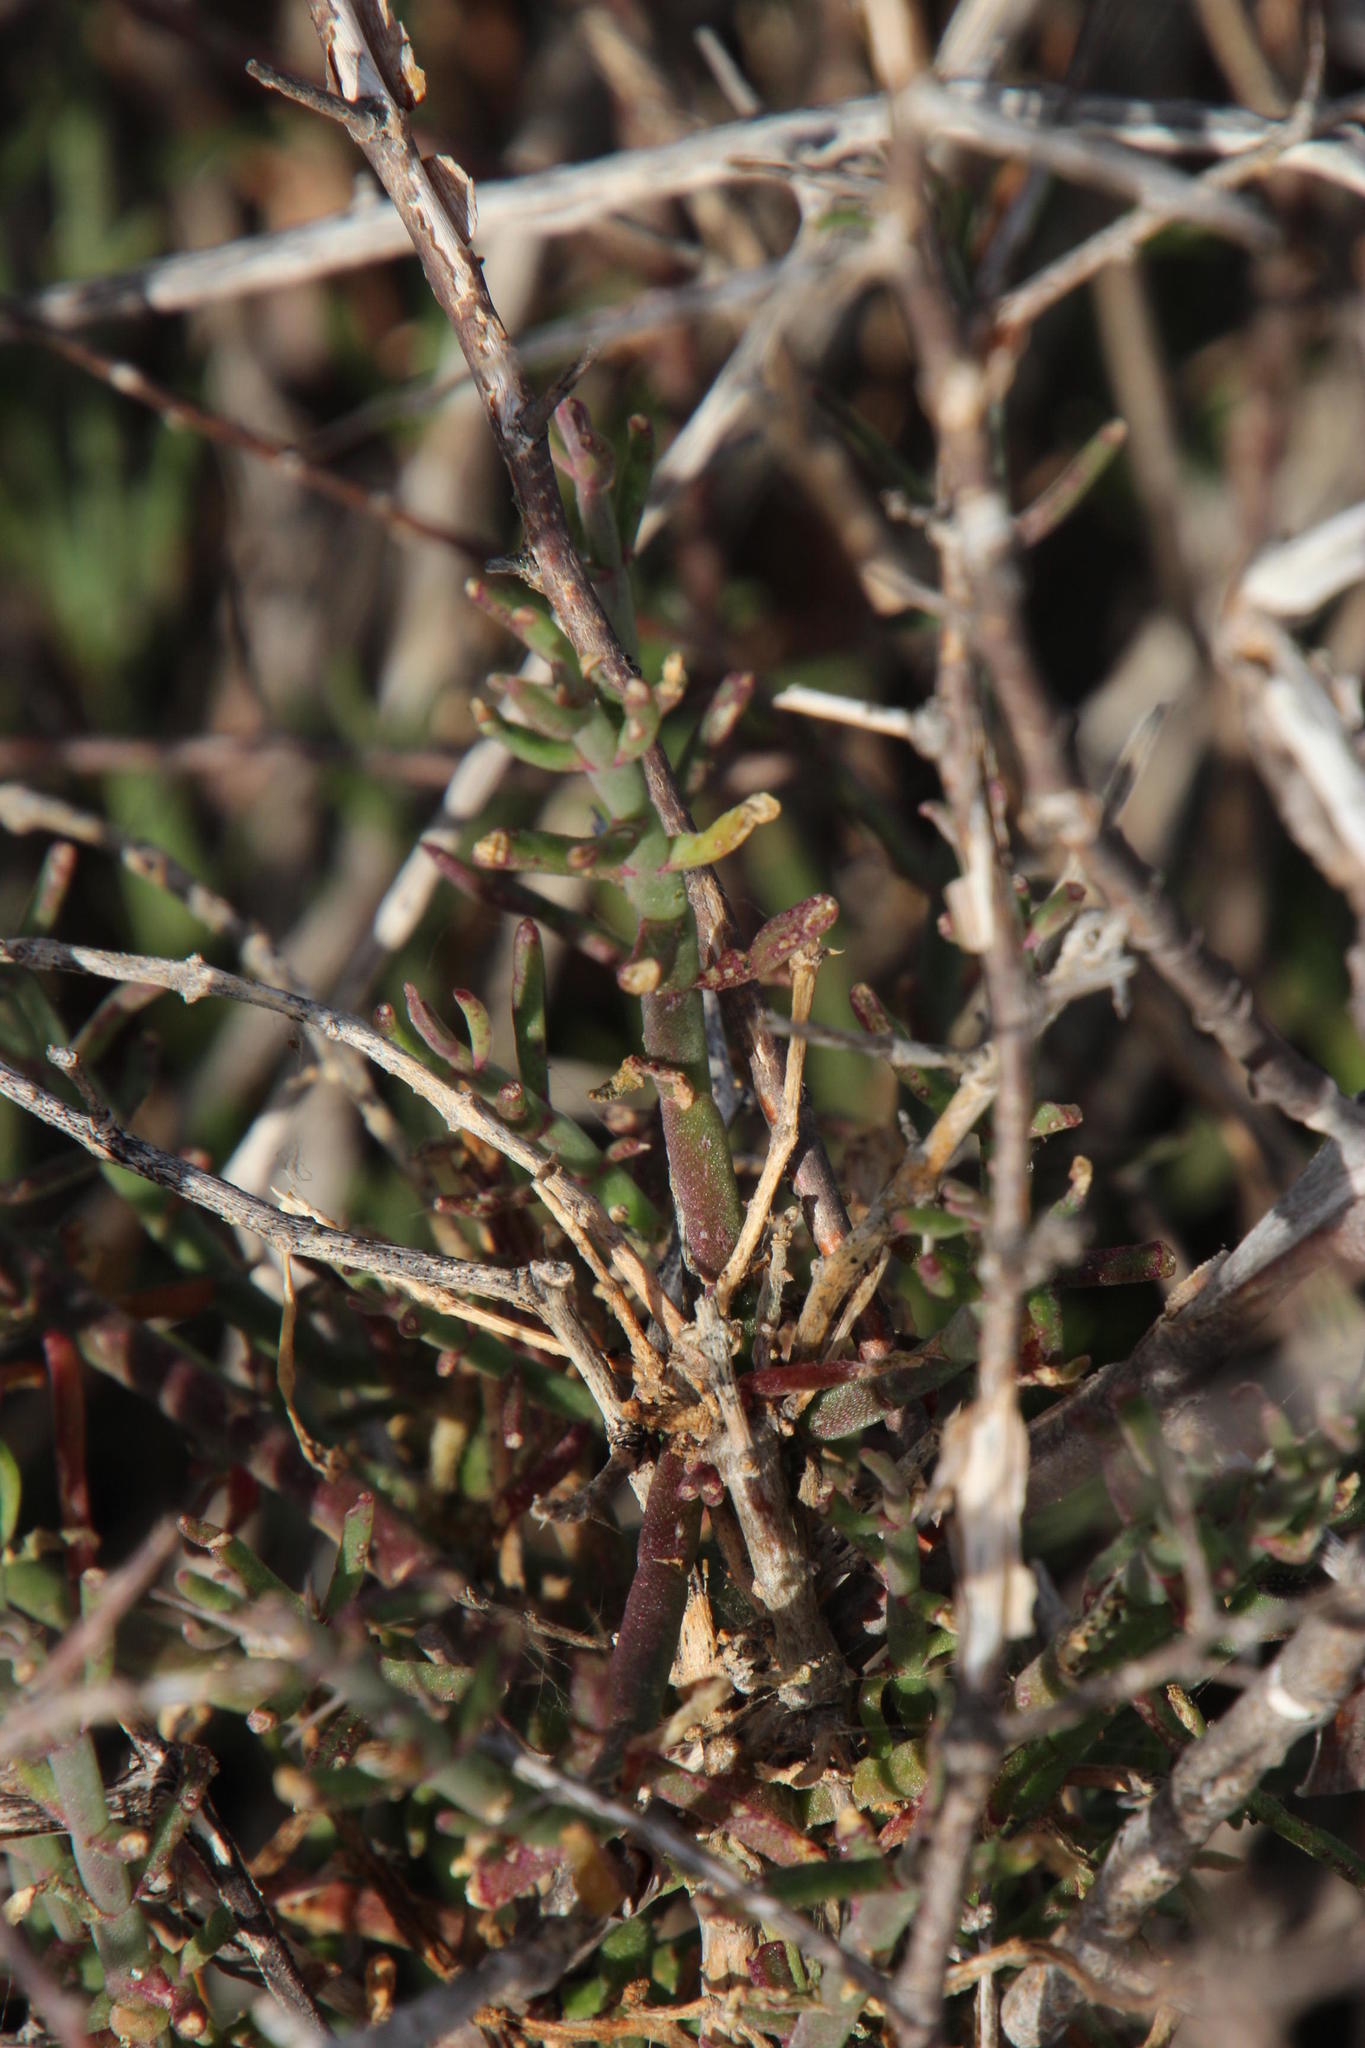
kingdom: Plantae
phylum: Tracheophyta
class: Magnoliopsida
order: Caryophyllales
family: Aizoaceae
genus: Mesembryanthemum
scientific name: Mesembryanthemum geniculiflorum
